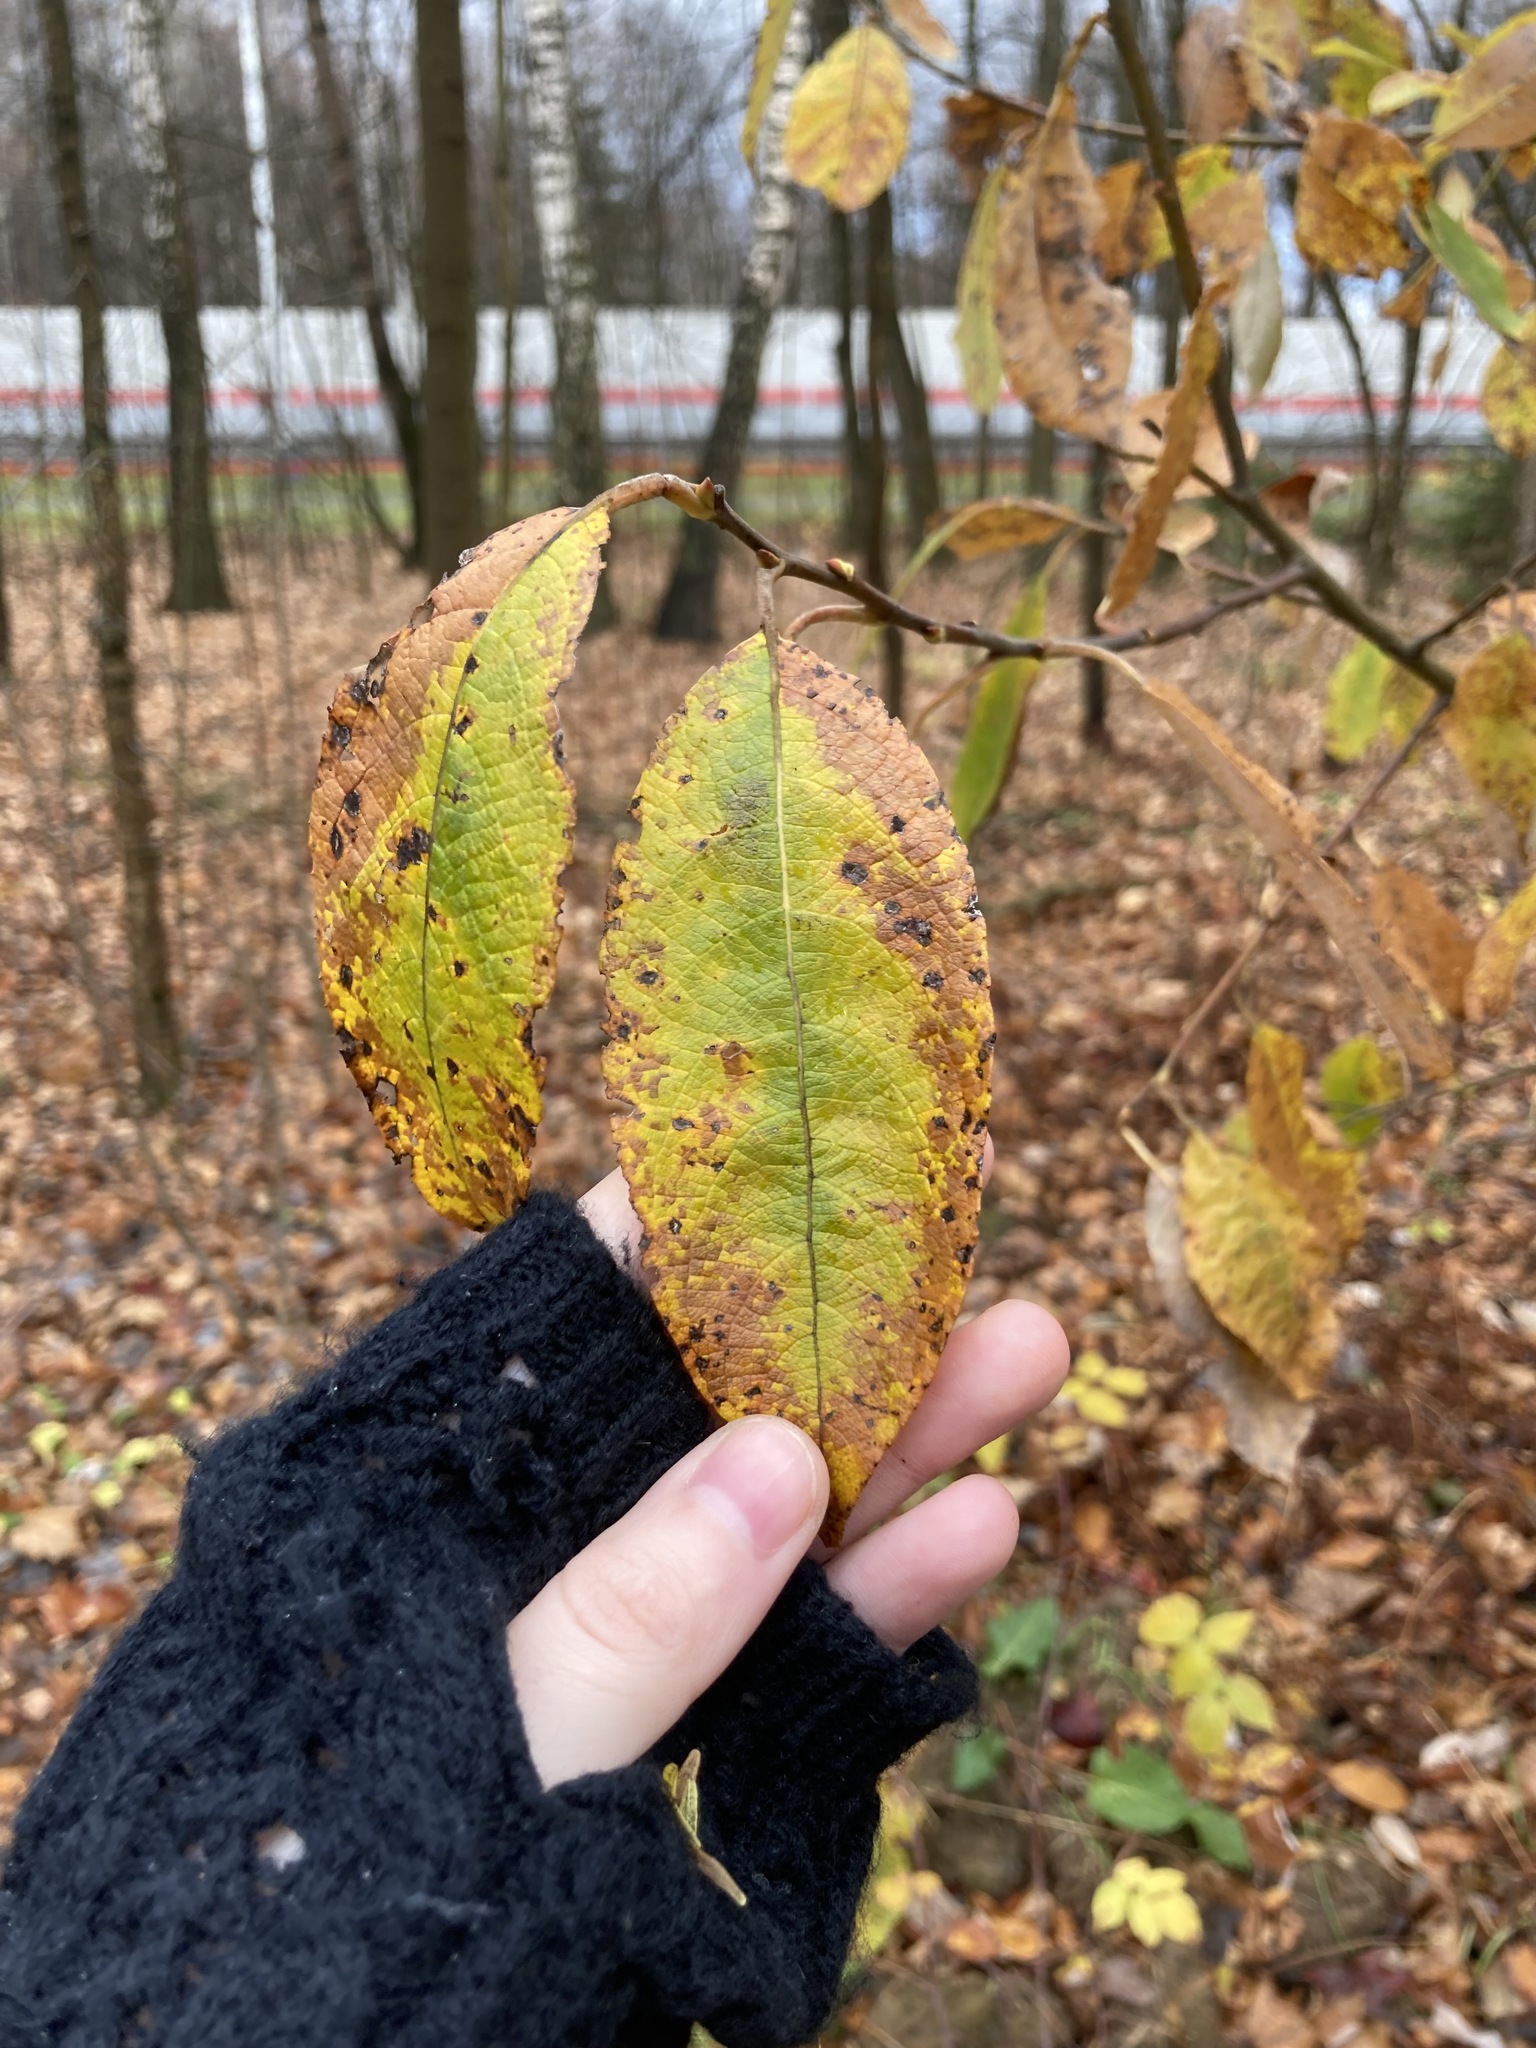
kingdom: Plantae
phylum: Tracheophyta
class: Magnoliopsida
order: Malpighiales
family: Salicaceae
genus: Salix
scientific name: Salix caprea
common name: Goat willow
